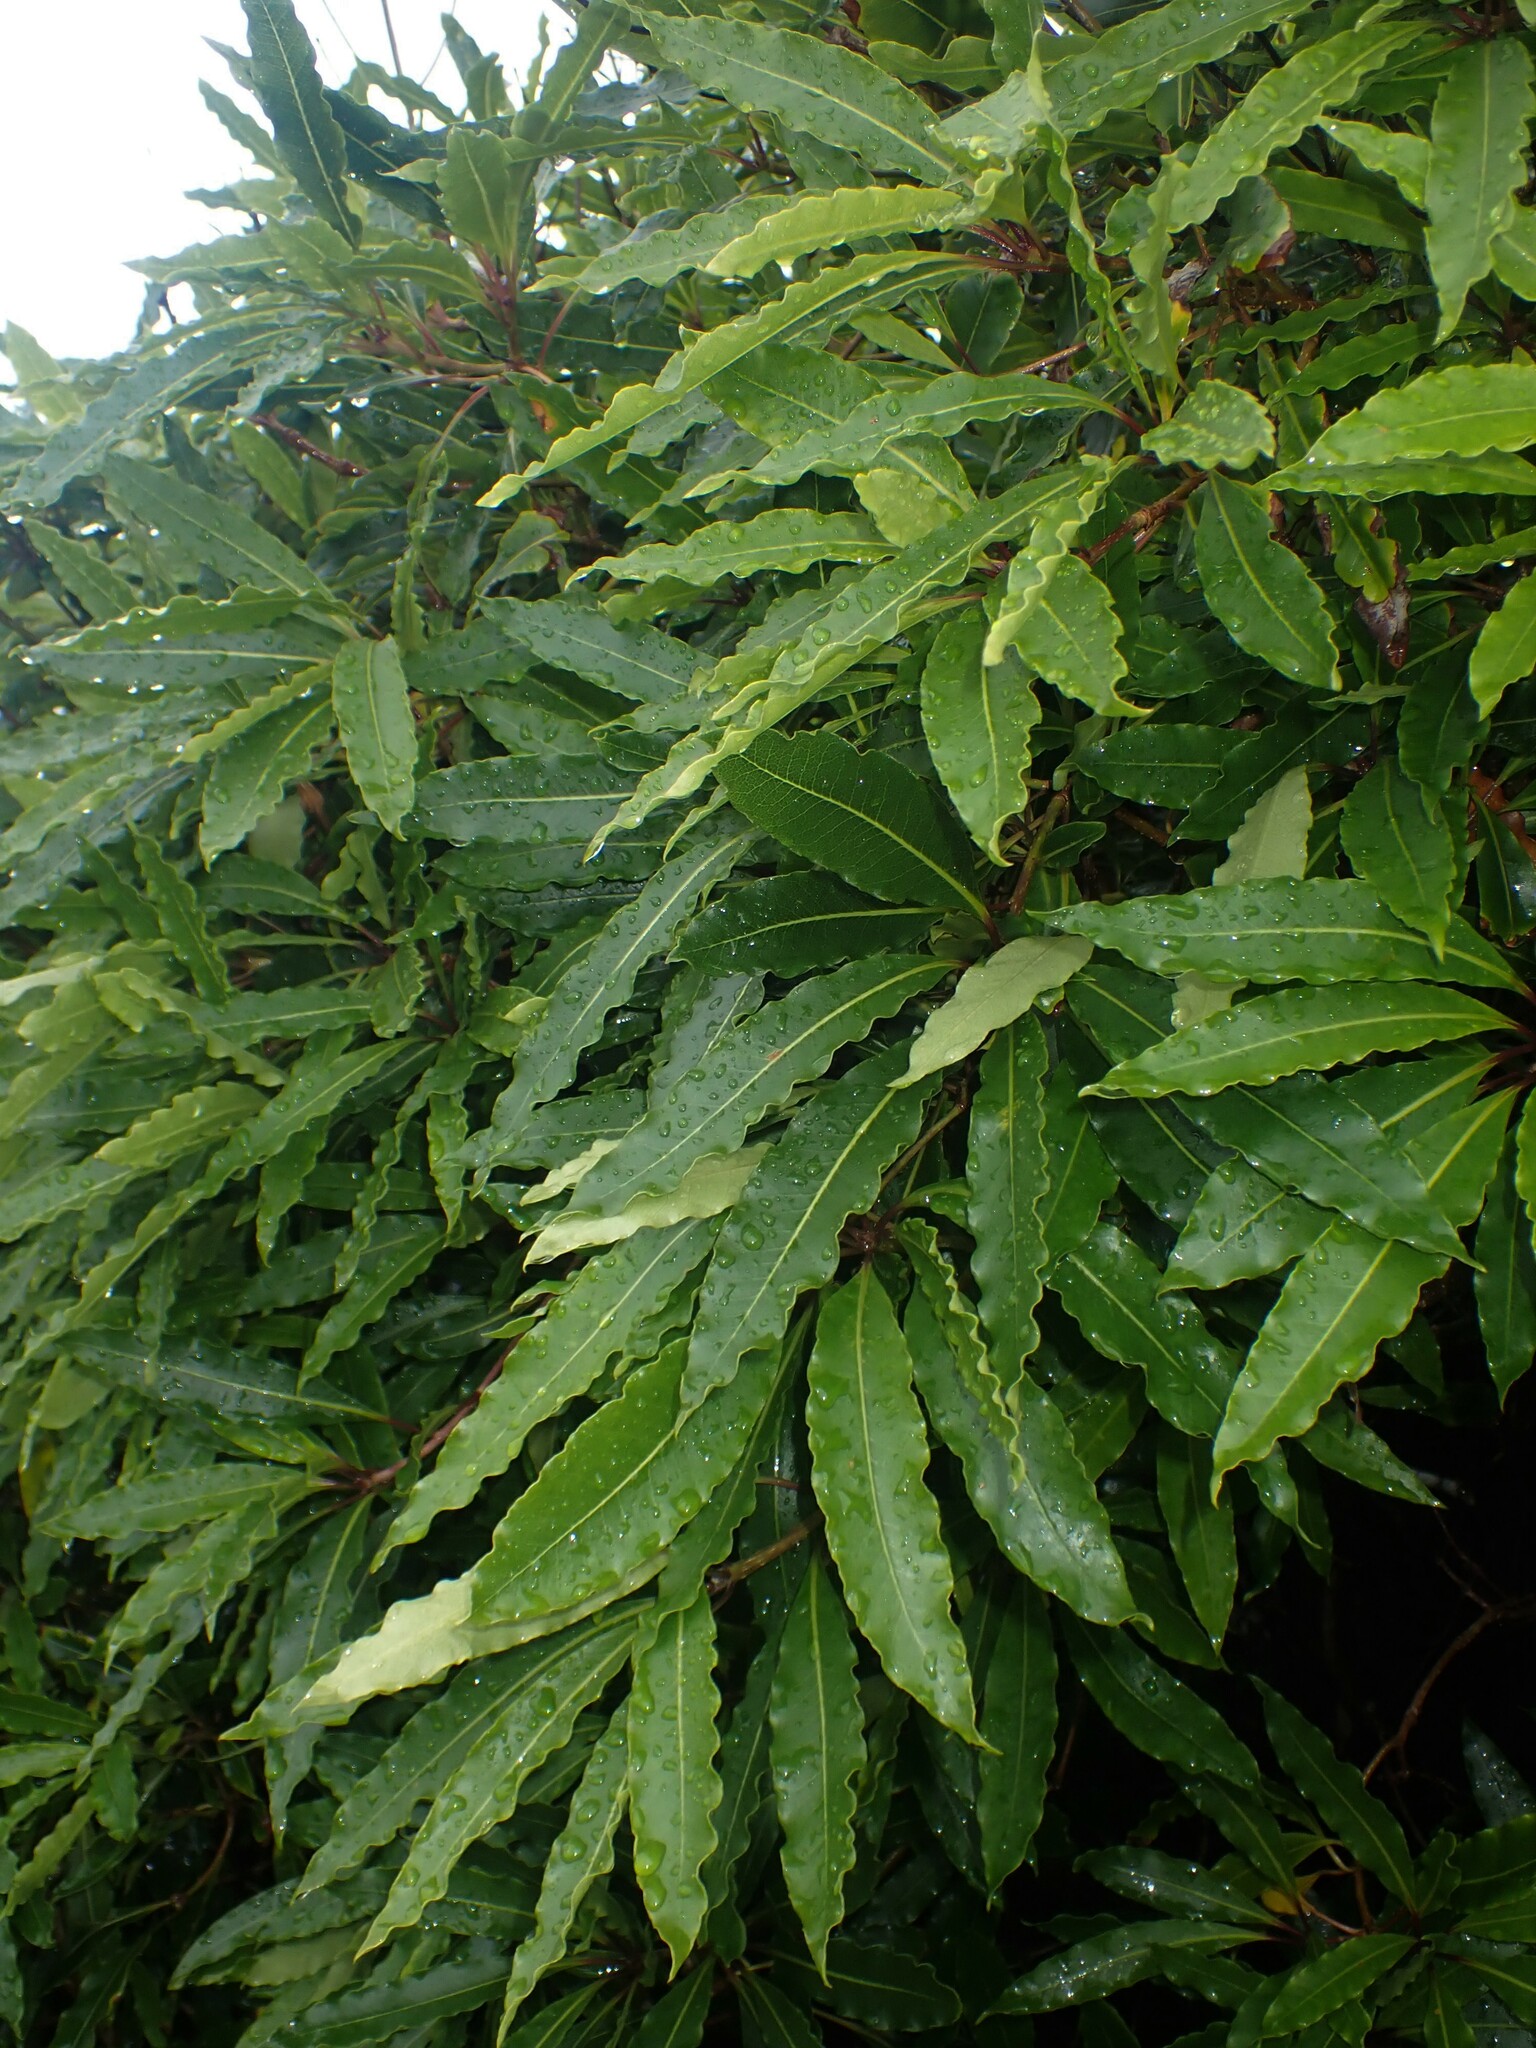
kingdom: Plantae
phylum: Tracheophyta
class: Magnoliopsida
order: Apiales
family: Pittosporaceae
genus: Pittosporum
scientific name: Pittosporum undulatum
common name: Australian cheesewood
